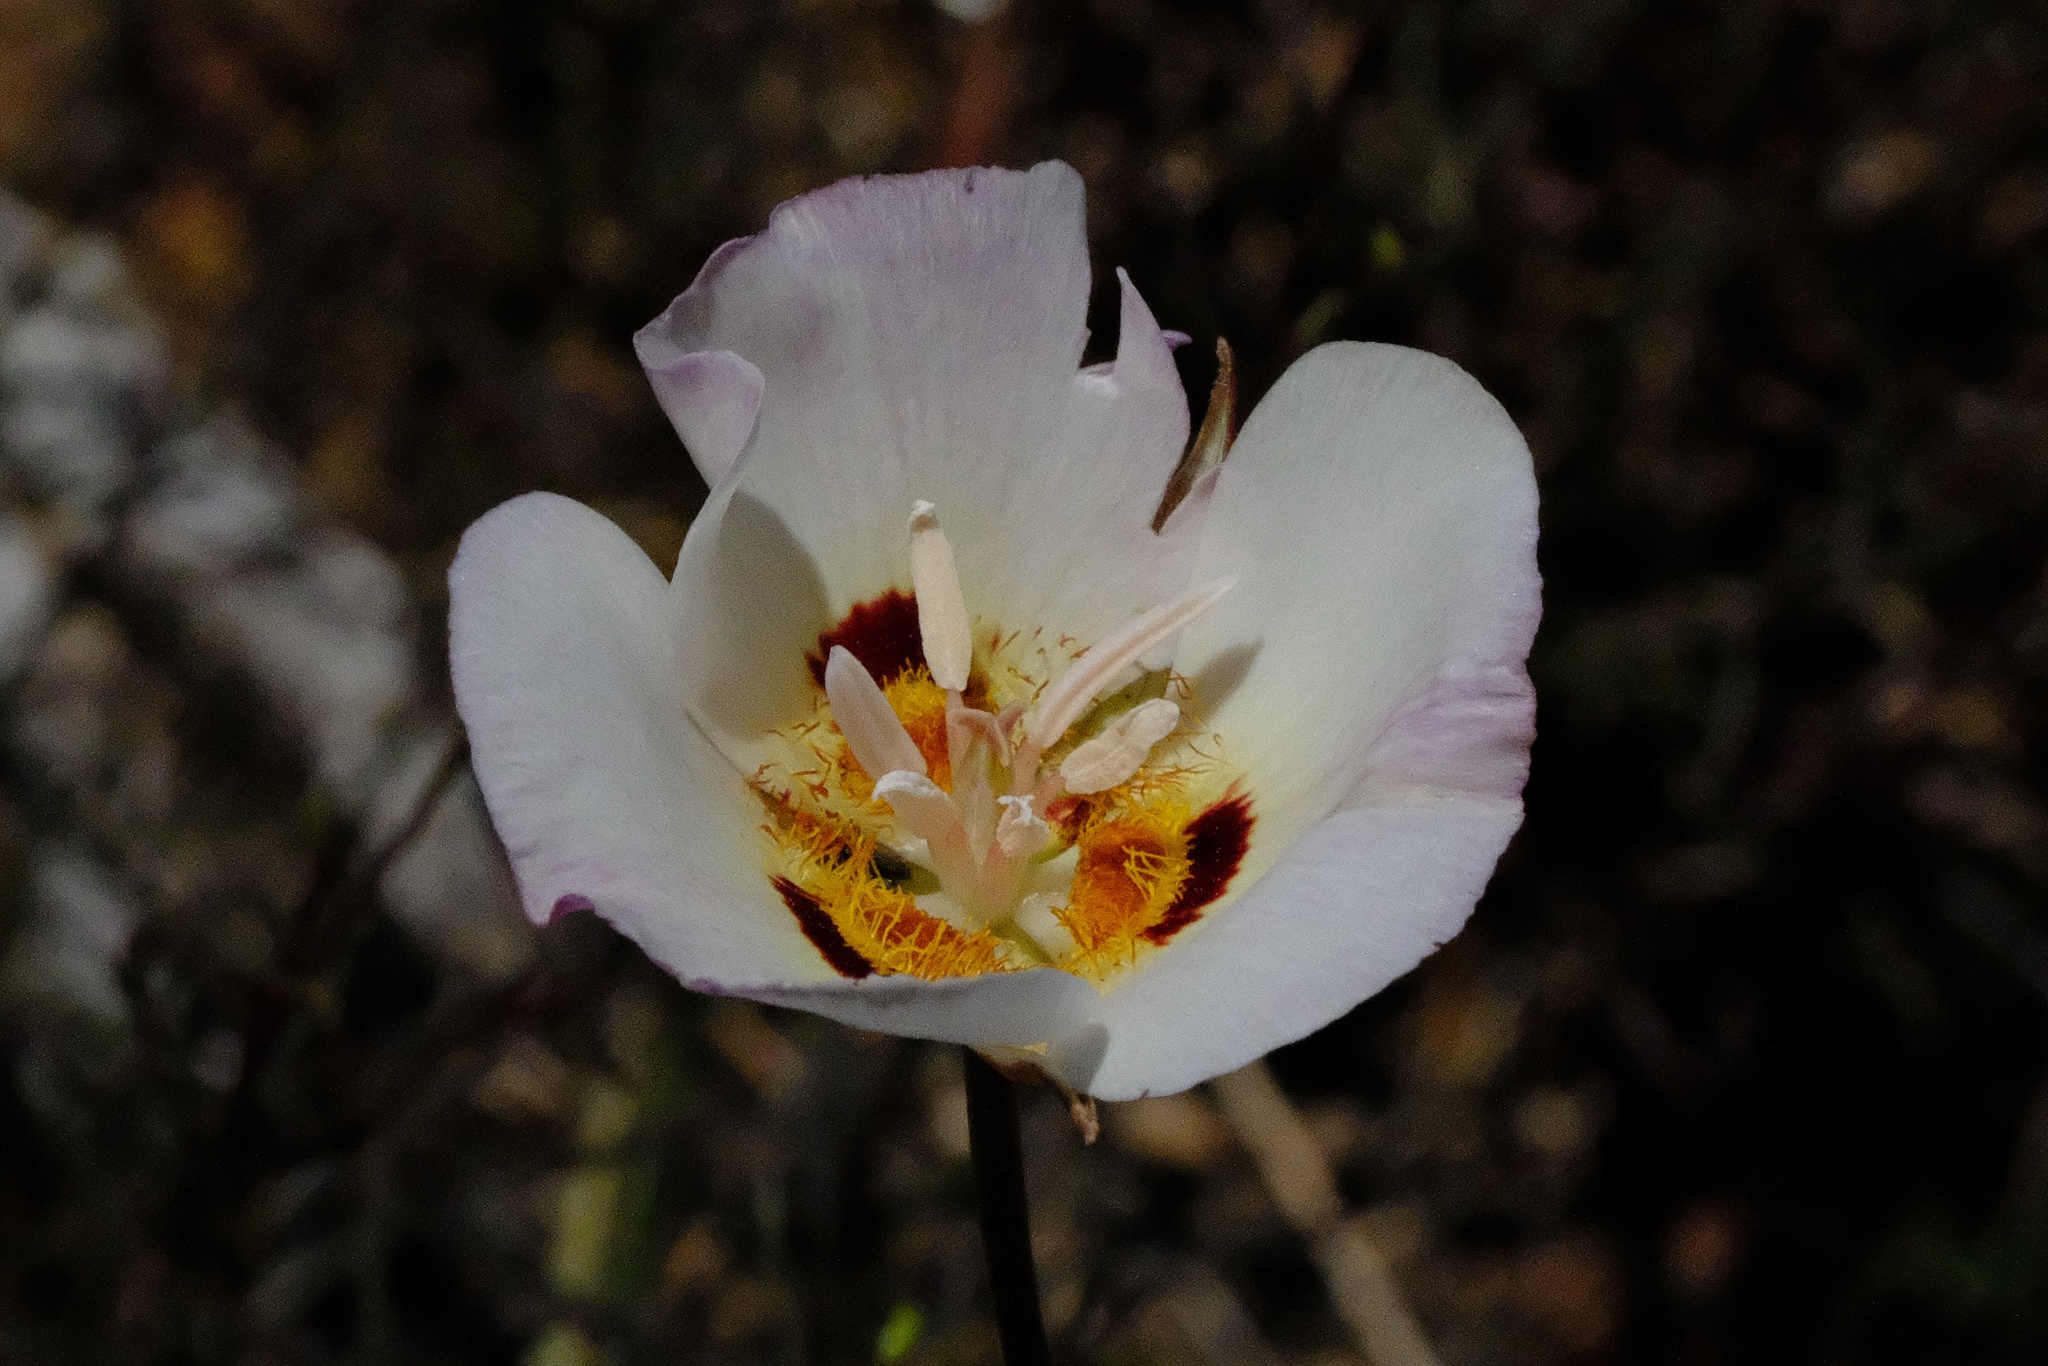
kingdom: Plantae
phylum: Tracheophyta
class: Liliopsida
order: Liliales
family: Liliaceae
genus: Calochortus
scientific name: Calochortus dunnii
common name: Dunn's mariposa-lily
